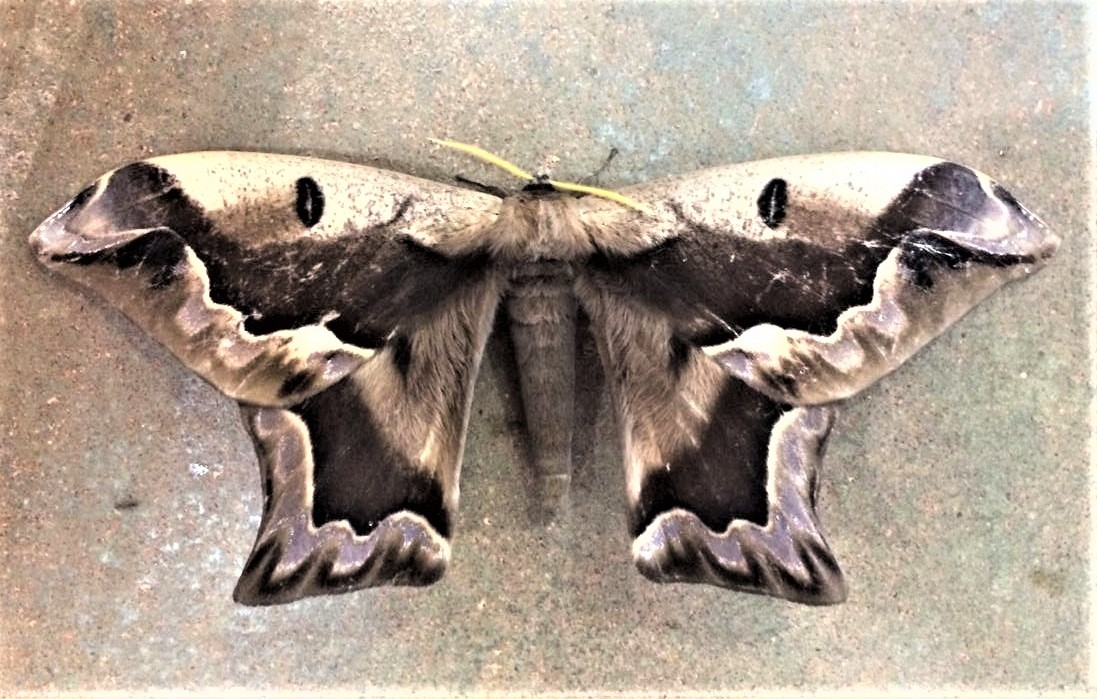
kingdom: Animalia
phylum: Arthropoda
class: Insecta
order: Lepidoptera
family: Saturniidae
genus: Arsenura
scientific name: Arsenura sylla
